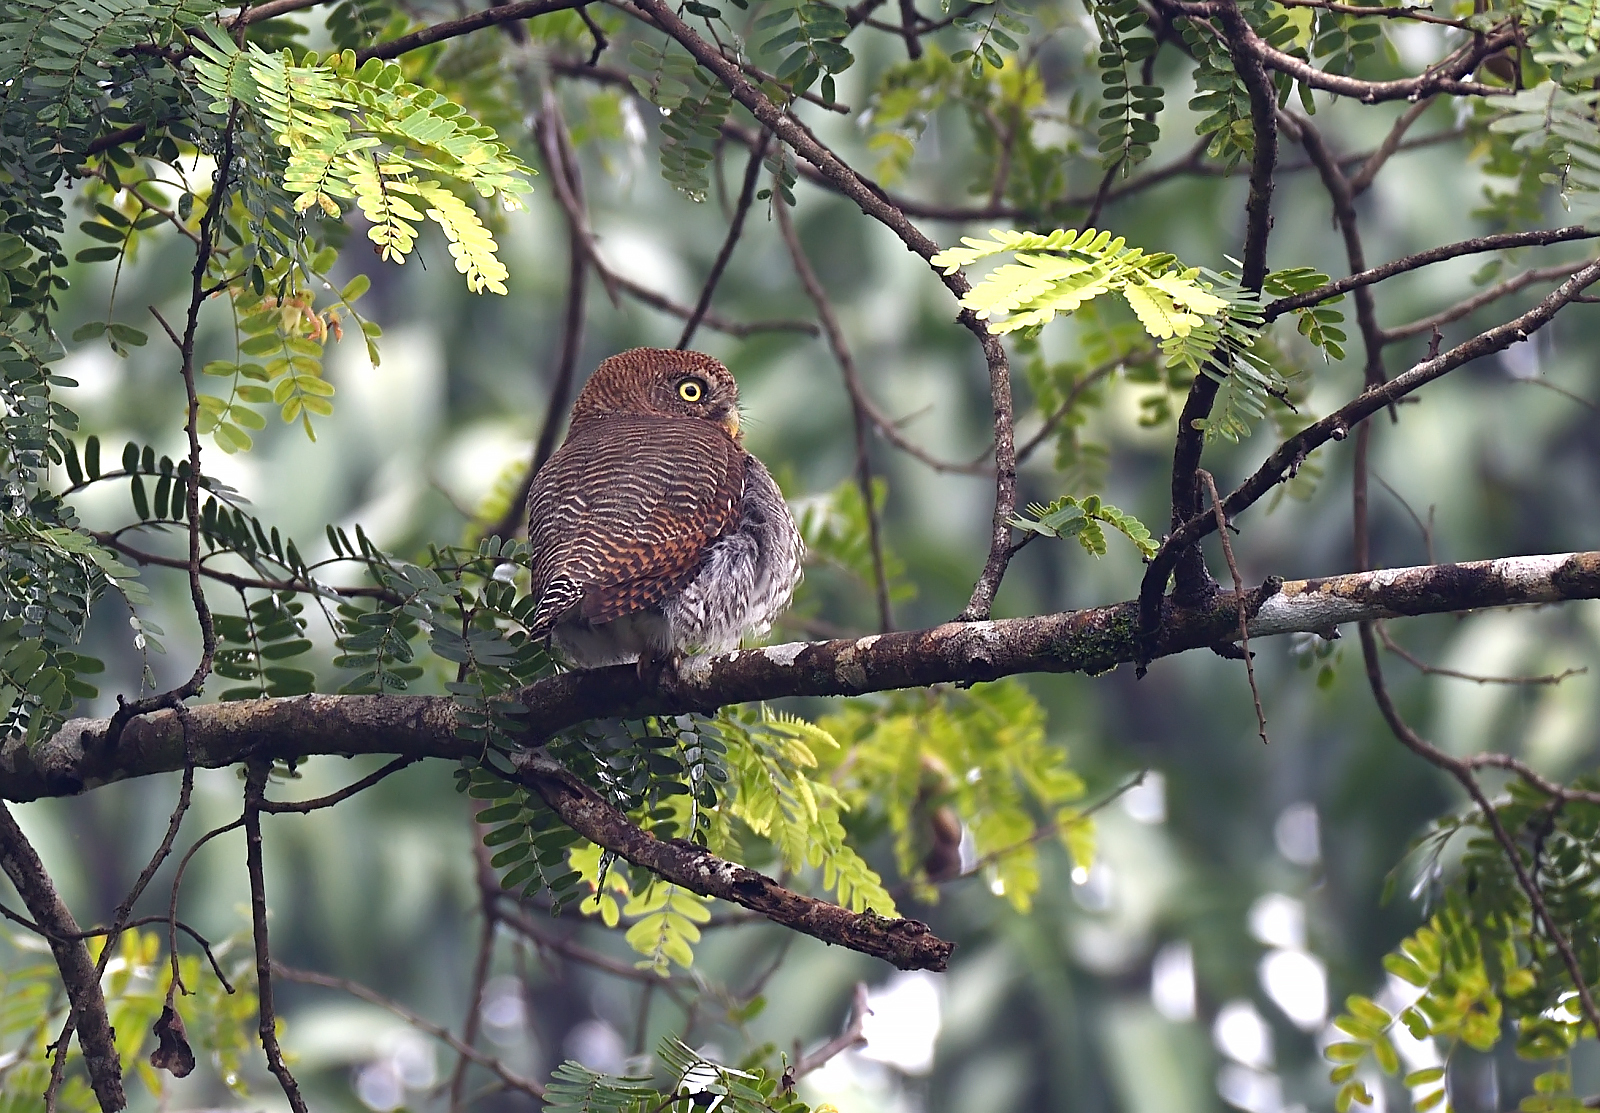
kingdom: Animalia
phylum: Chordata
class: Aves
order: Strigiformes
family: Strigidae
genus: Glaucidium
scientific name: Glaucidium radiatum
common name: Jungle owlet
